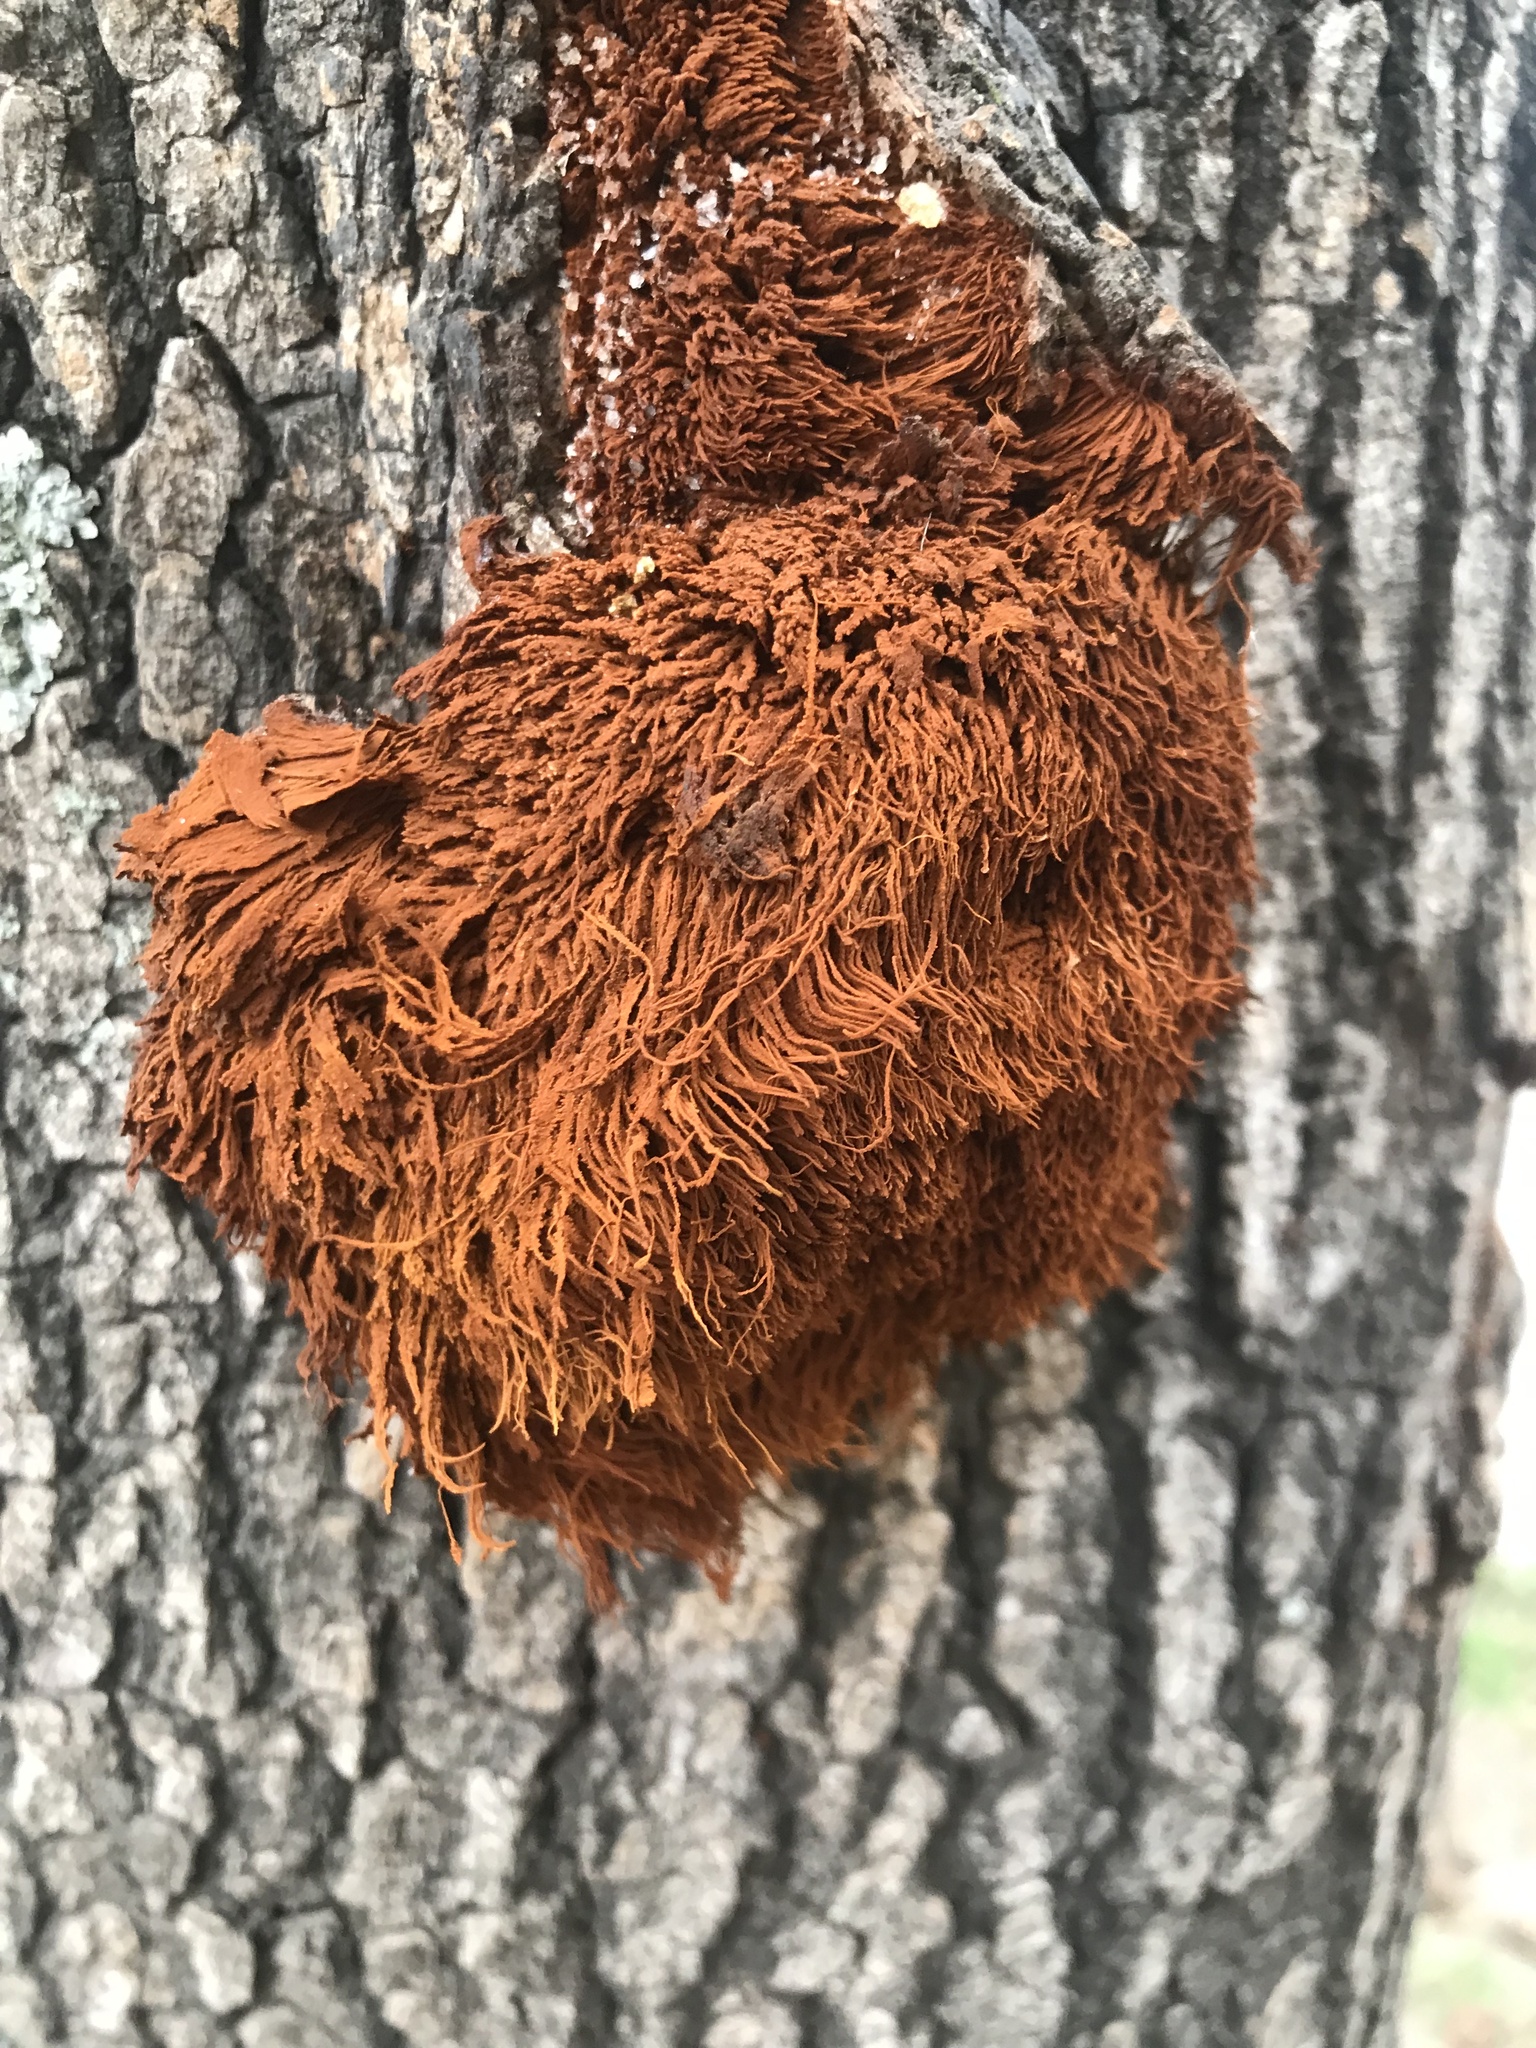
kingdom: Fungi
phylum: Basidiomycota
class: Agaricomycetes
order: Hymenochaetales
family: Hymenochaetaceae
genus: Inonotus
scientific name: Inonotus rickii
